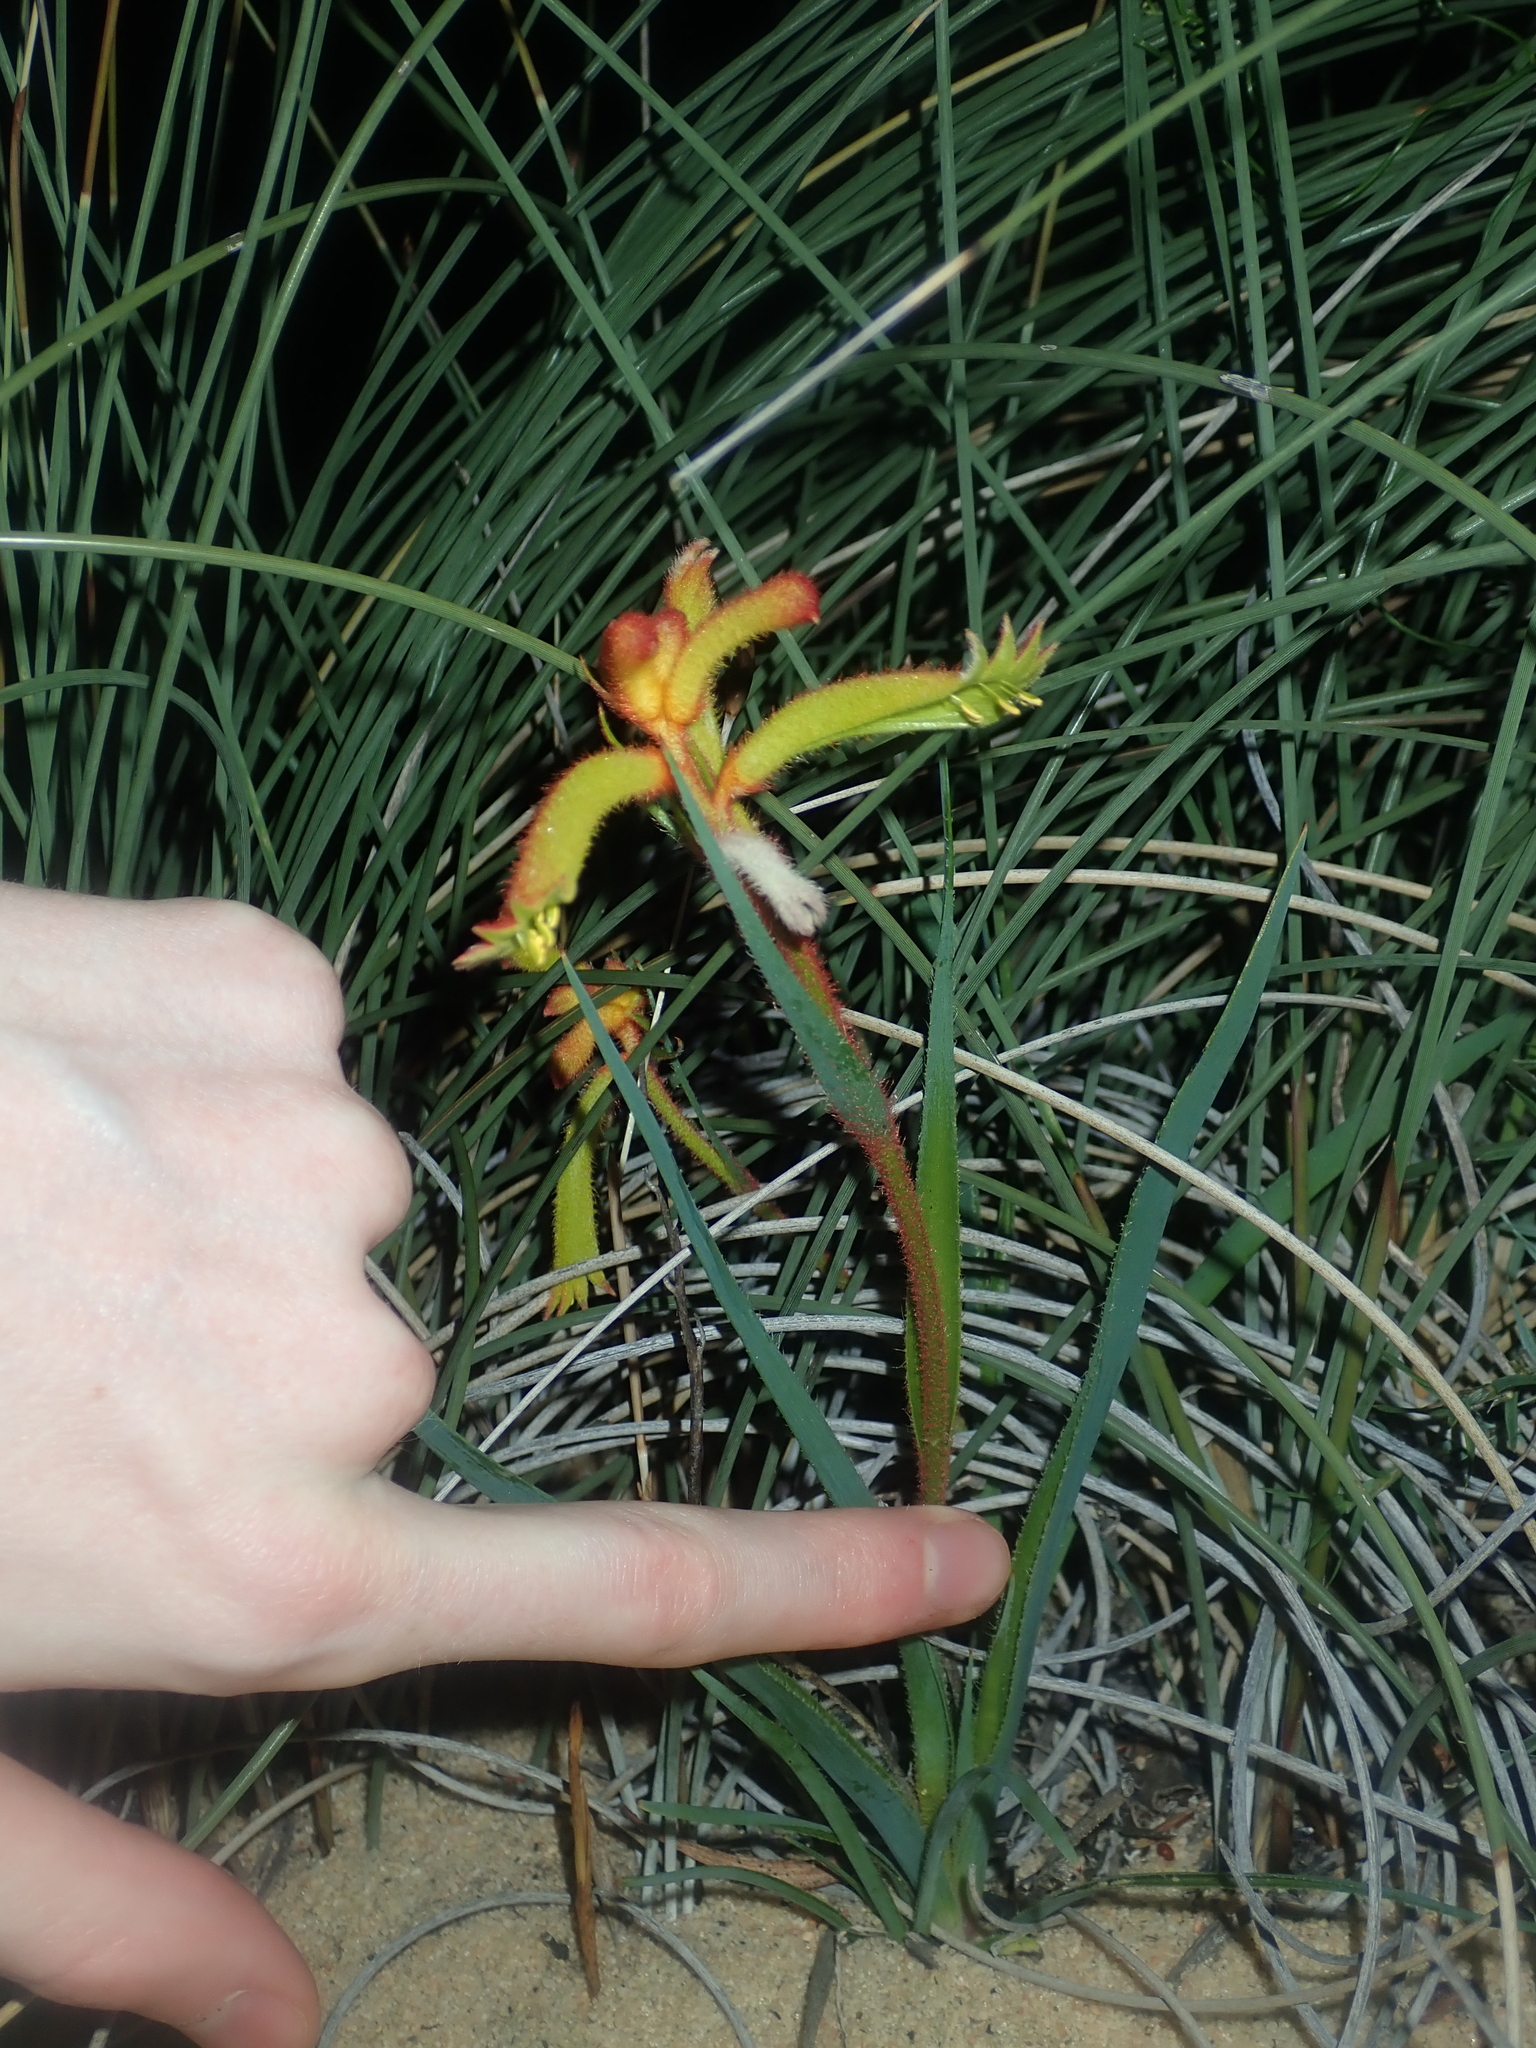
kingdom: Plantae
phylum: Tracheophyta
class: Liliopsida
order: Commelinales
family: Haemodoraceae
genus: Anigozanthos
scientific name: Anigozanthos humilis
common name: Cat's-paw
